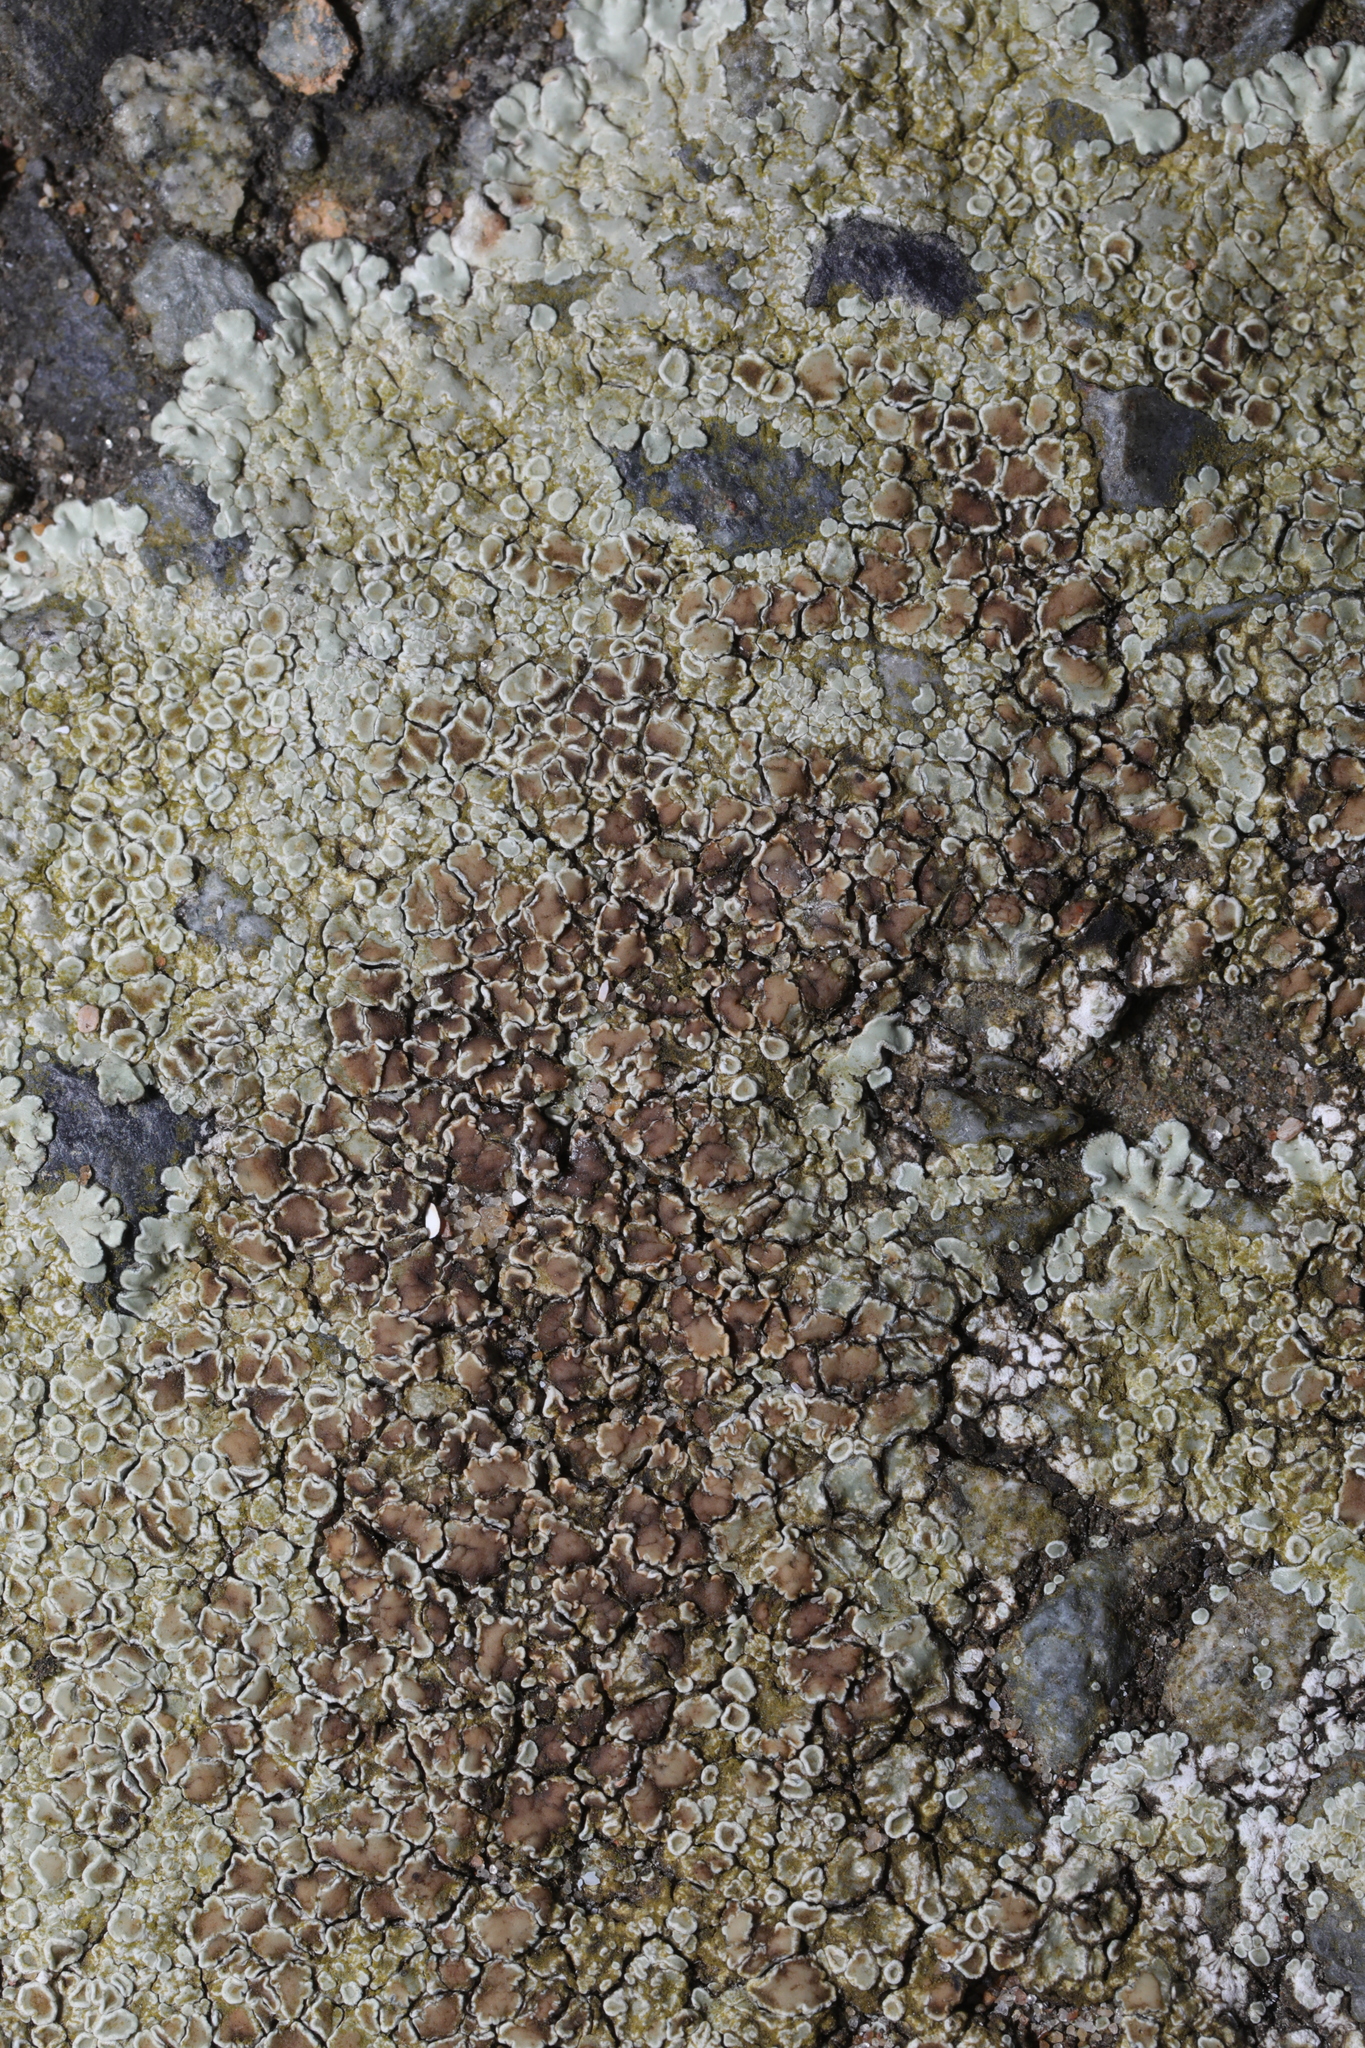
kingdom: Fungi
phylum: Ascomycota
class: Lecanoromycetes
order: Lecanorales
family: Lecanoraceae
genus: Protoparmeliopsis
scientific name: Protoparmeliopsis muralis
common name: Stonewall rim lichen
